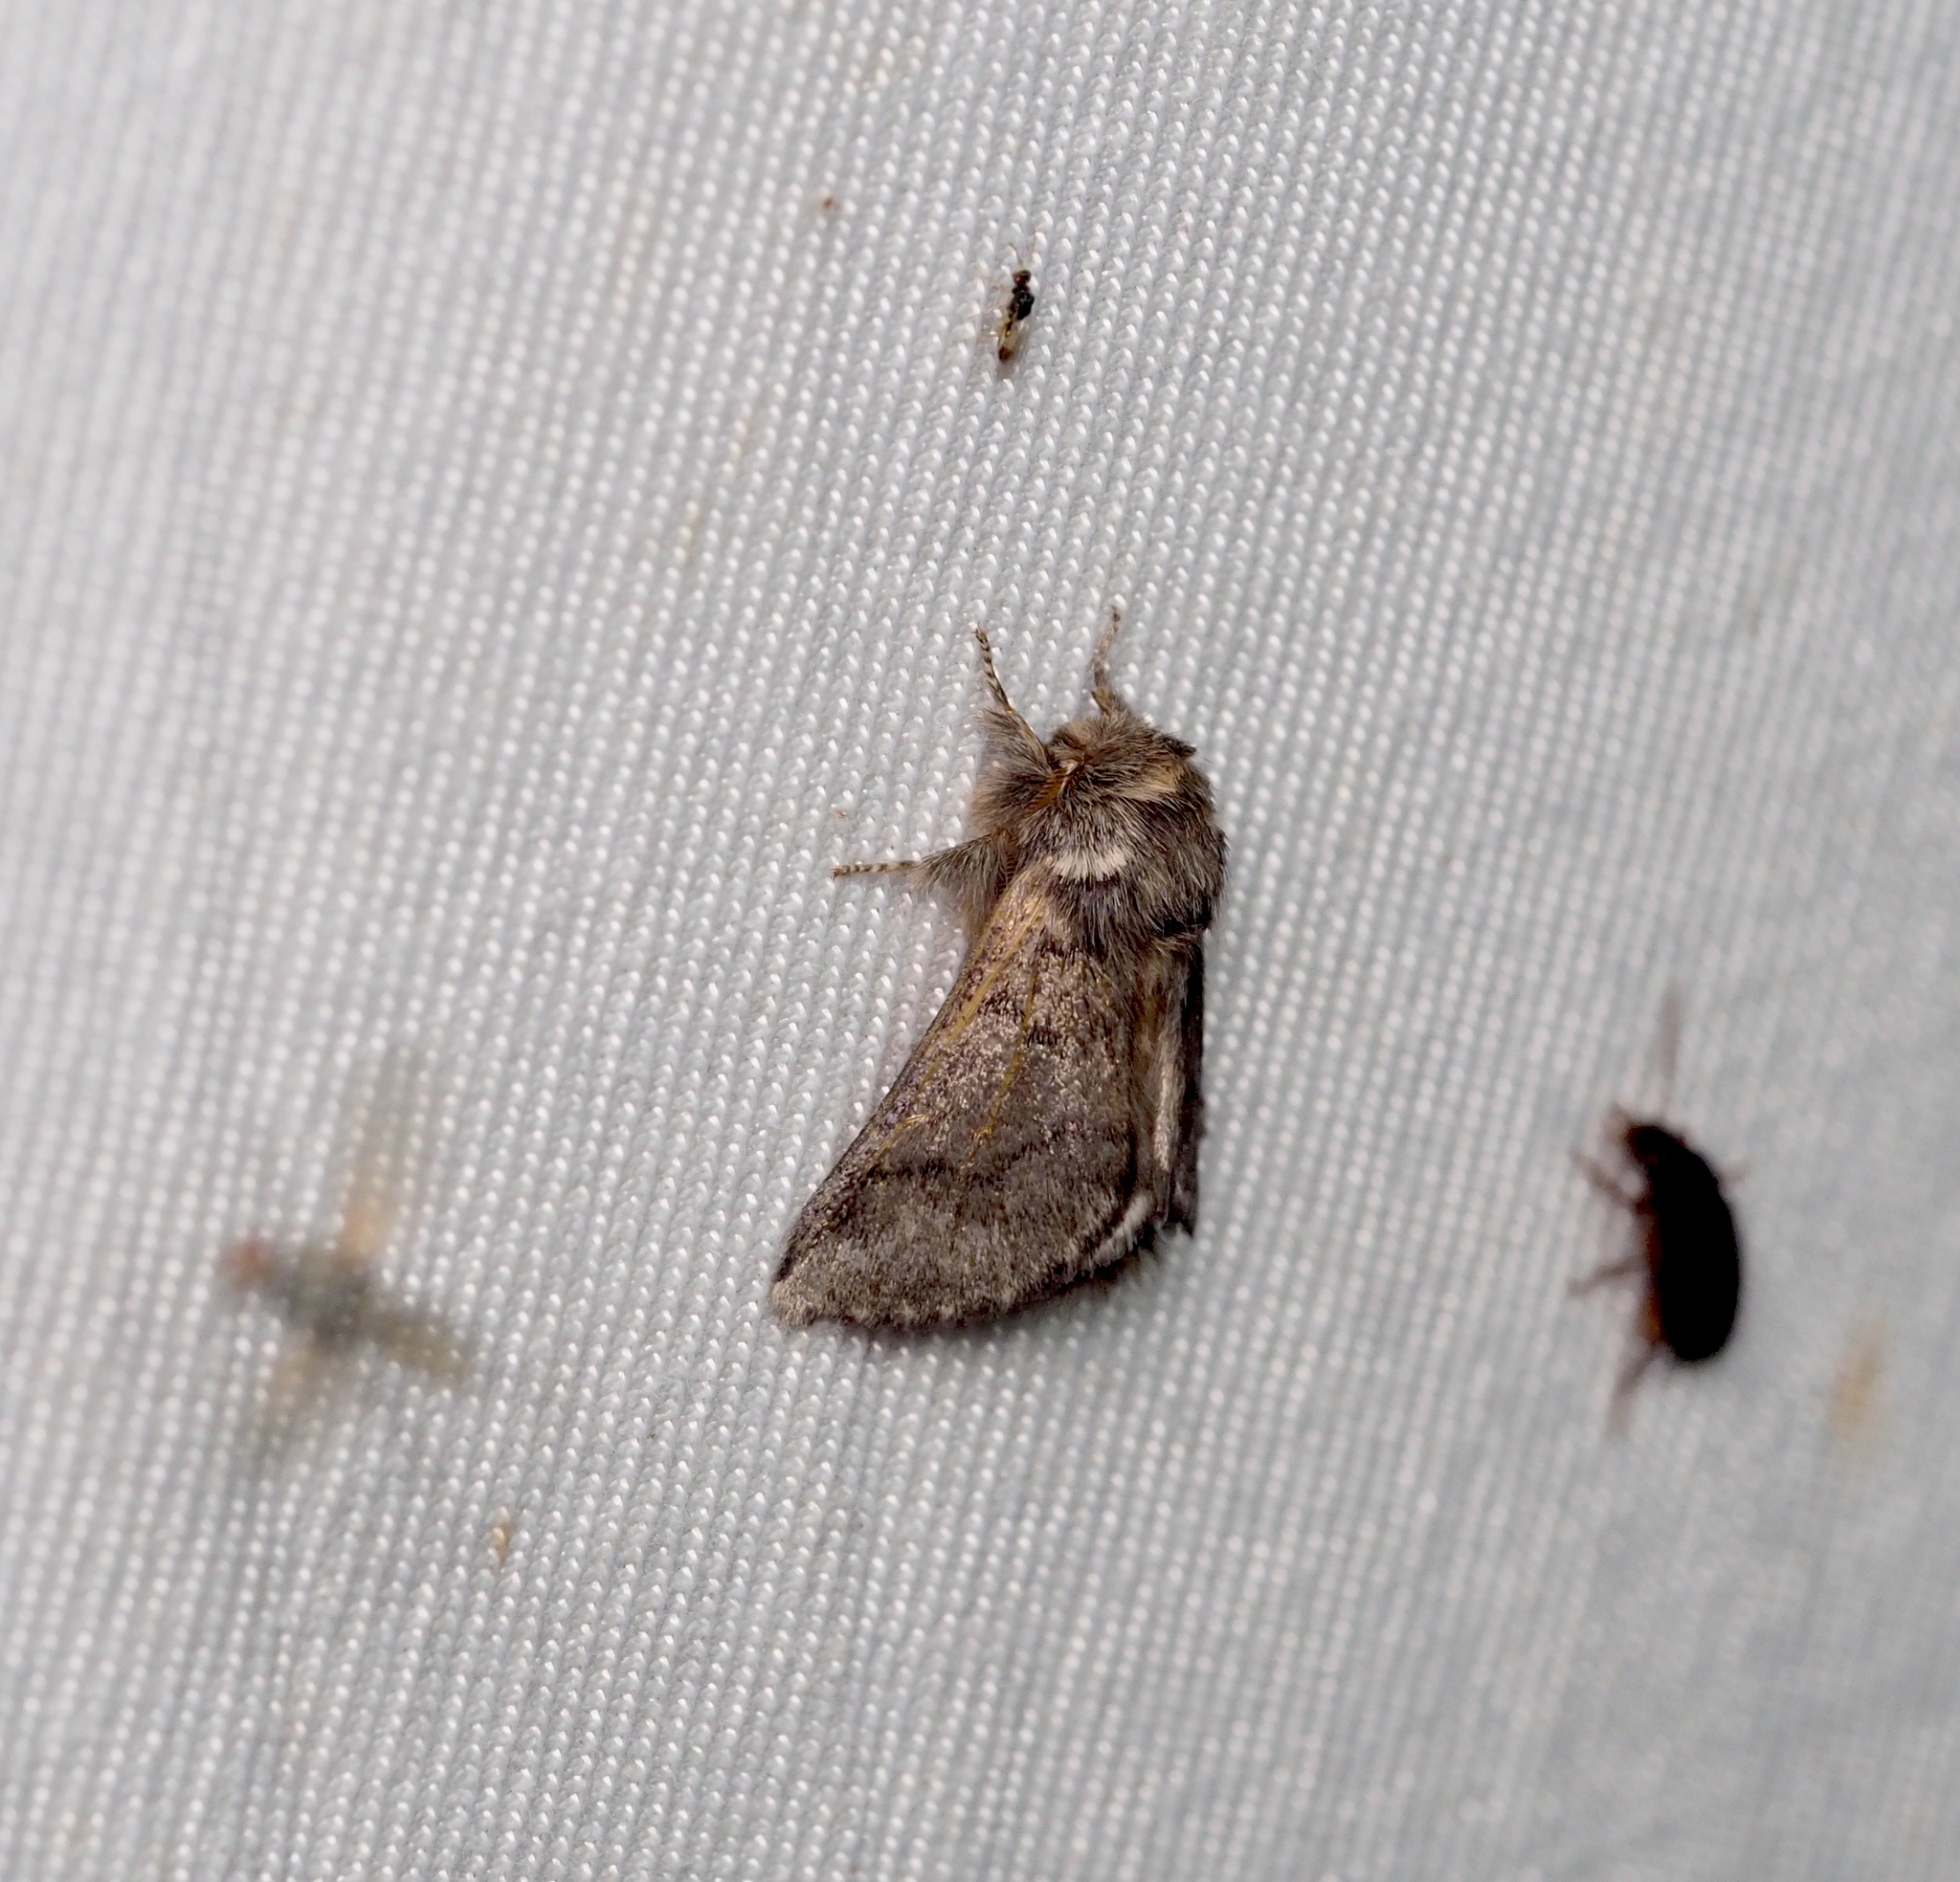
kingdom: Animalia
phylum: Arthropoda
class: Insecta
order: Lepidoptera
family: Notodontidae
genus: Thaumetopoea
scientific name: Thaumetopoea processionea
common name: Oak processionea
